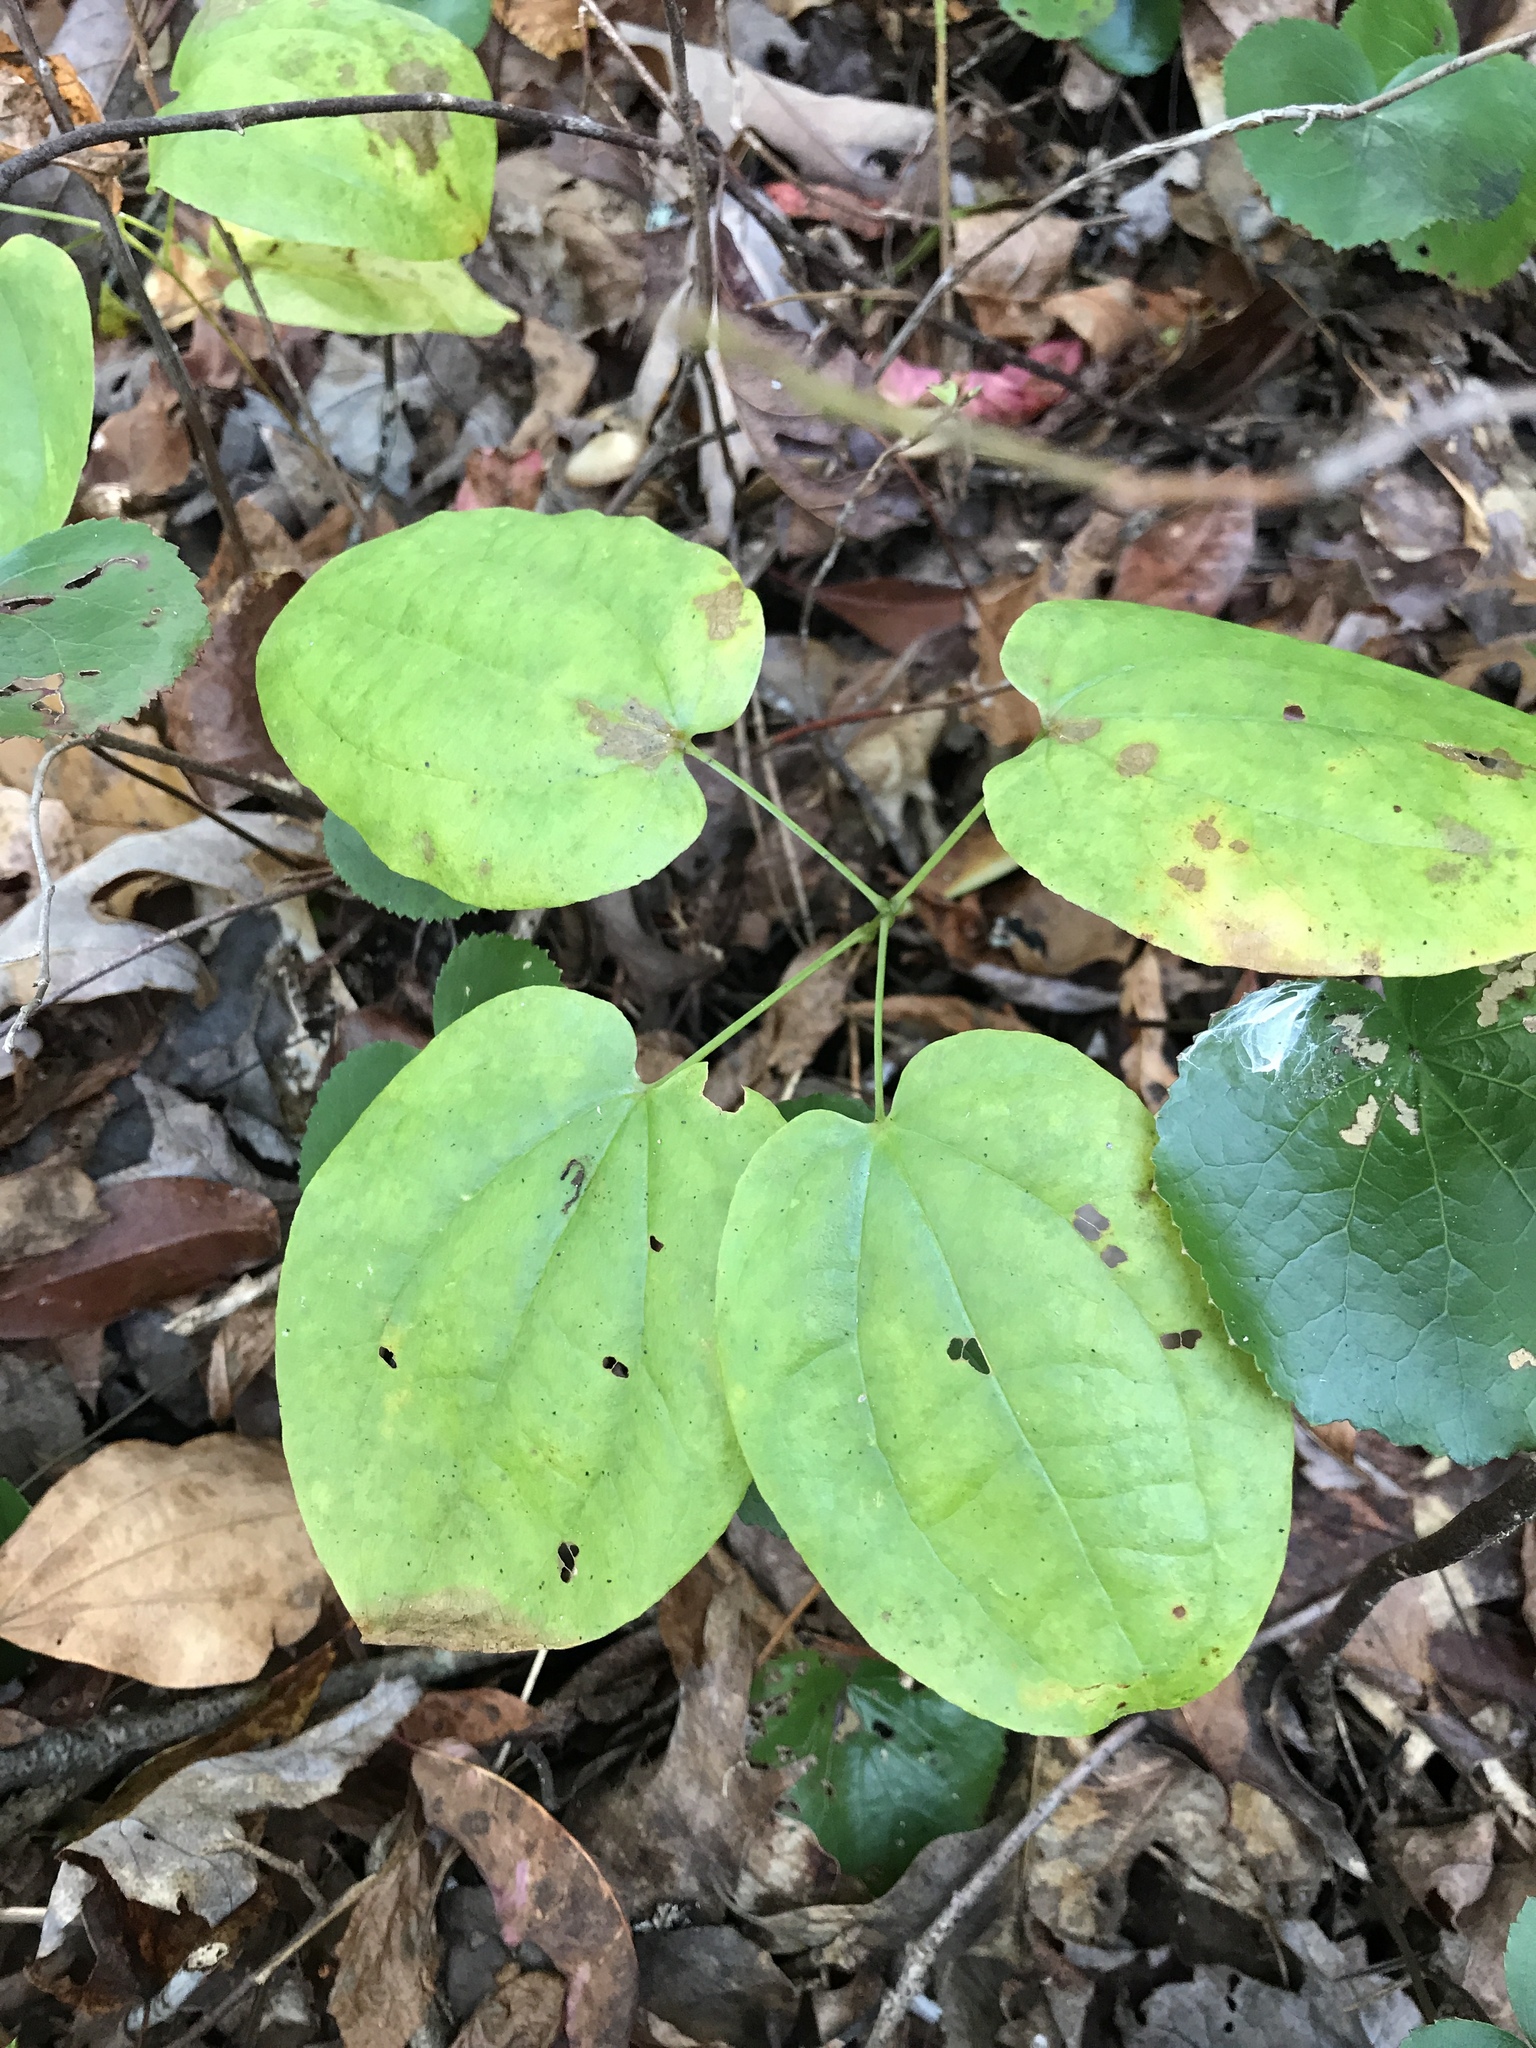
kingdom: Plantae
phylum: Tracheophyta
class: Liliopsida
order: Liliales
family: Smilacaceae
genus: Smilax
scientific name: Smilax biltmoreana
